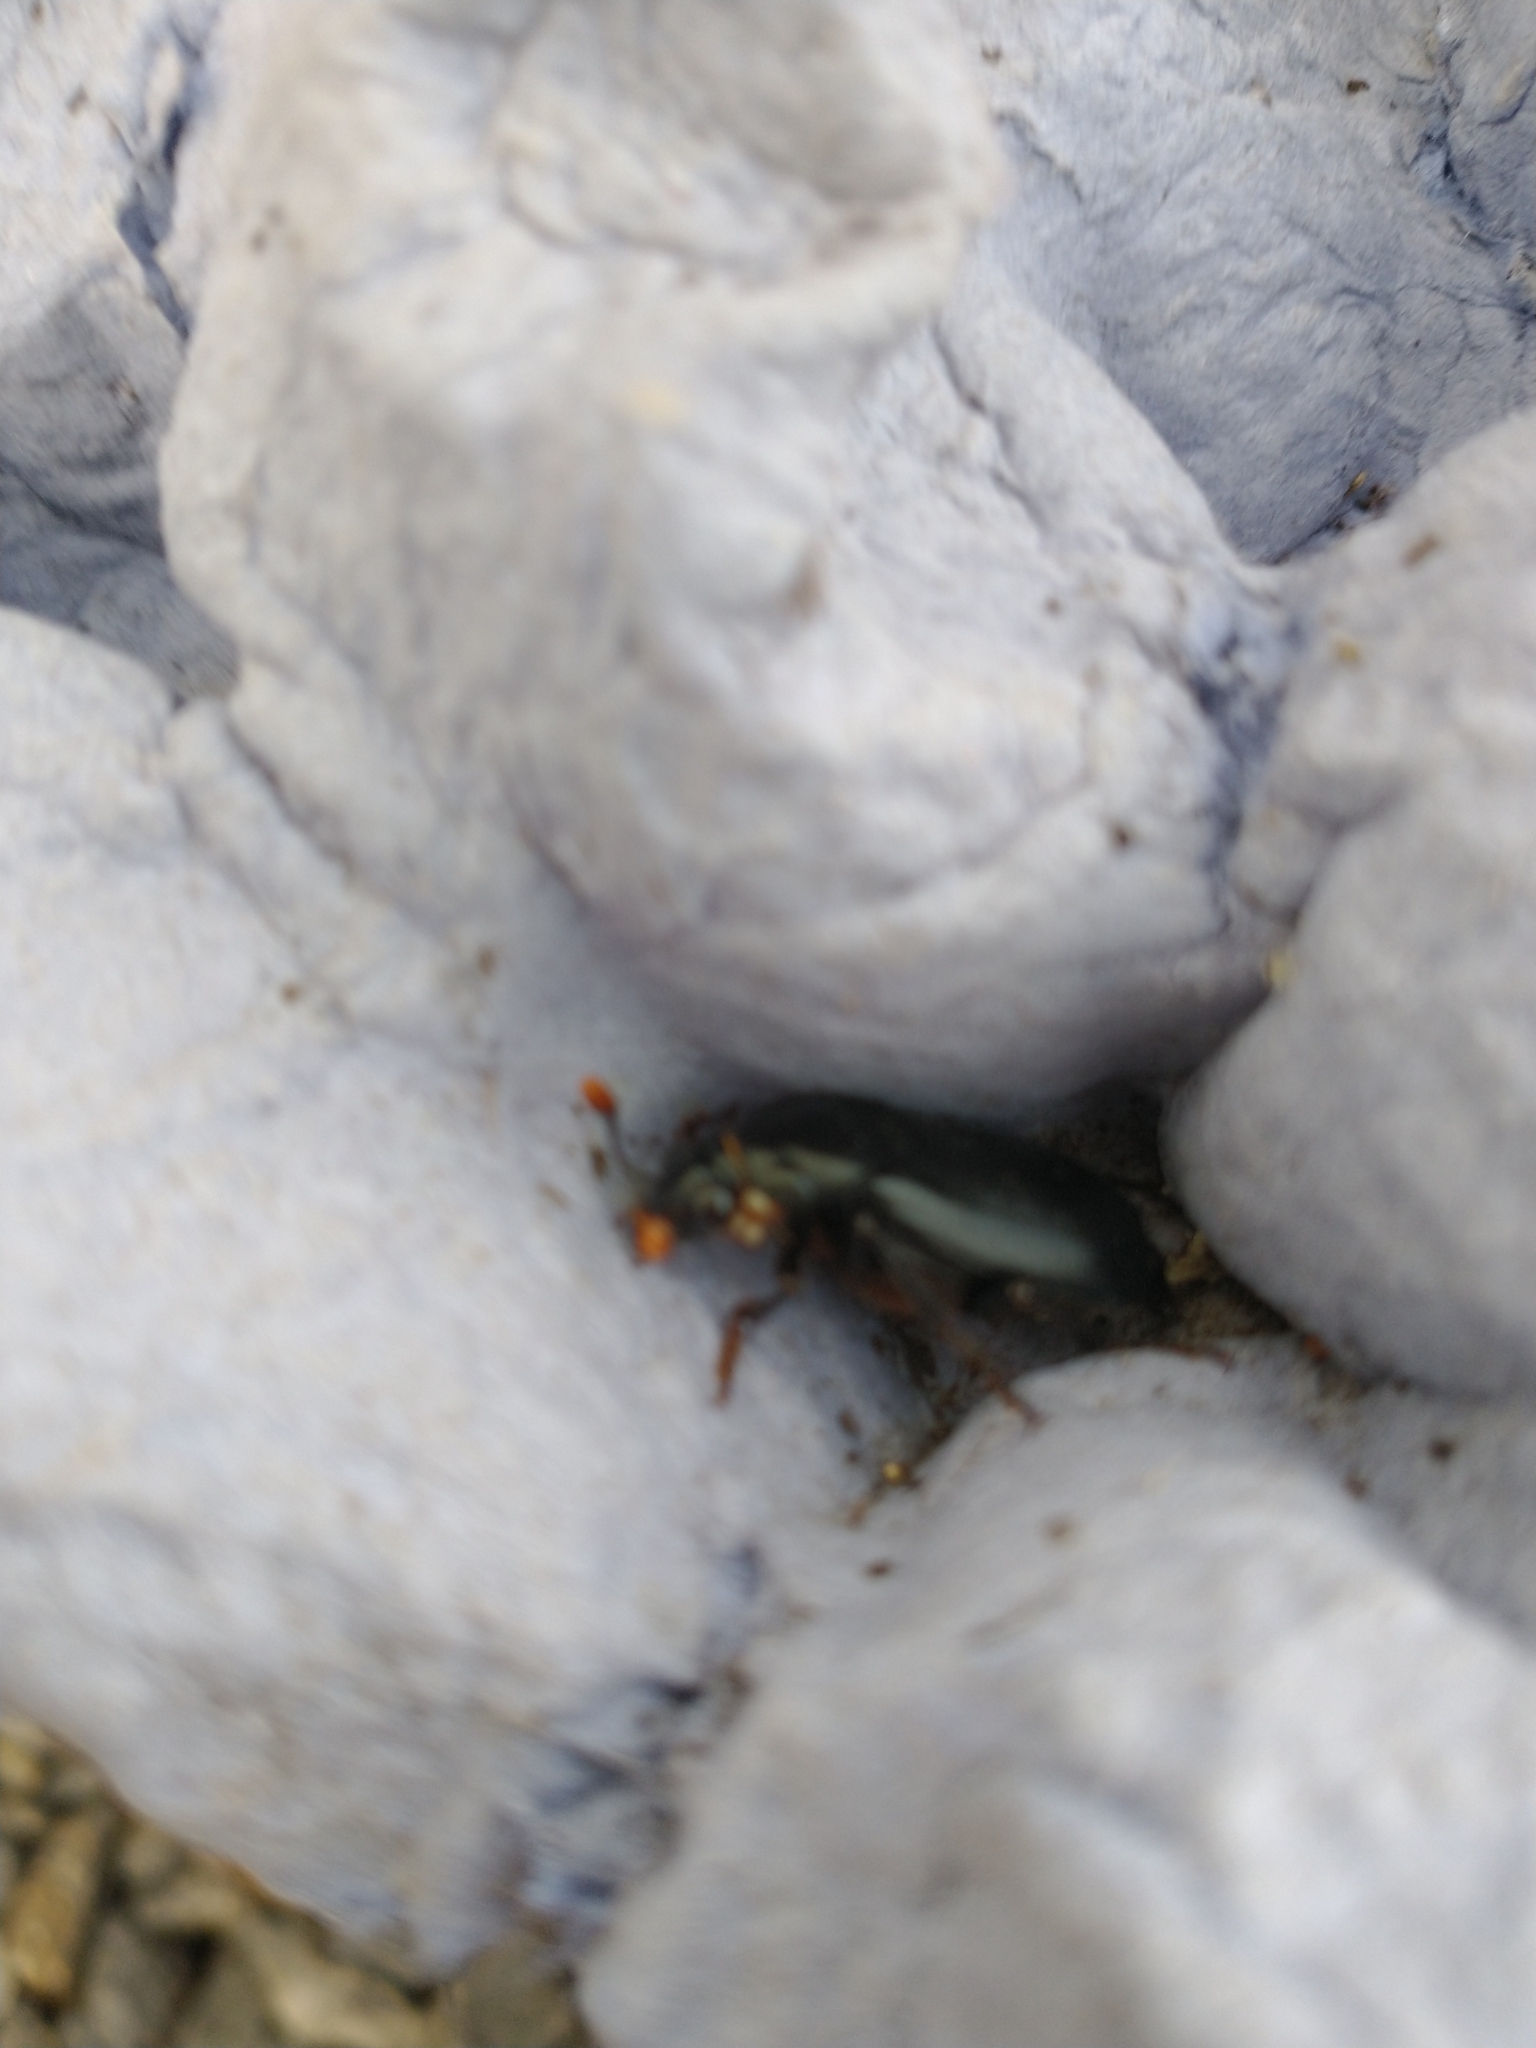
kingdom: Animalia
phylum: Arthropoda
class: Insecta
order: Coleoptera
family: Staphylinidae
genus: Nicrophorus
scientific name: Nicrophorus humator
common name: Black sexton beetle
